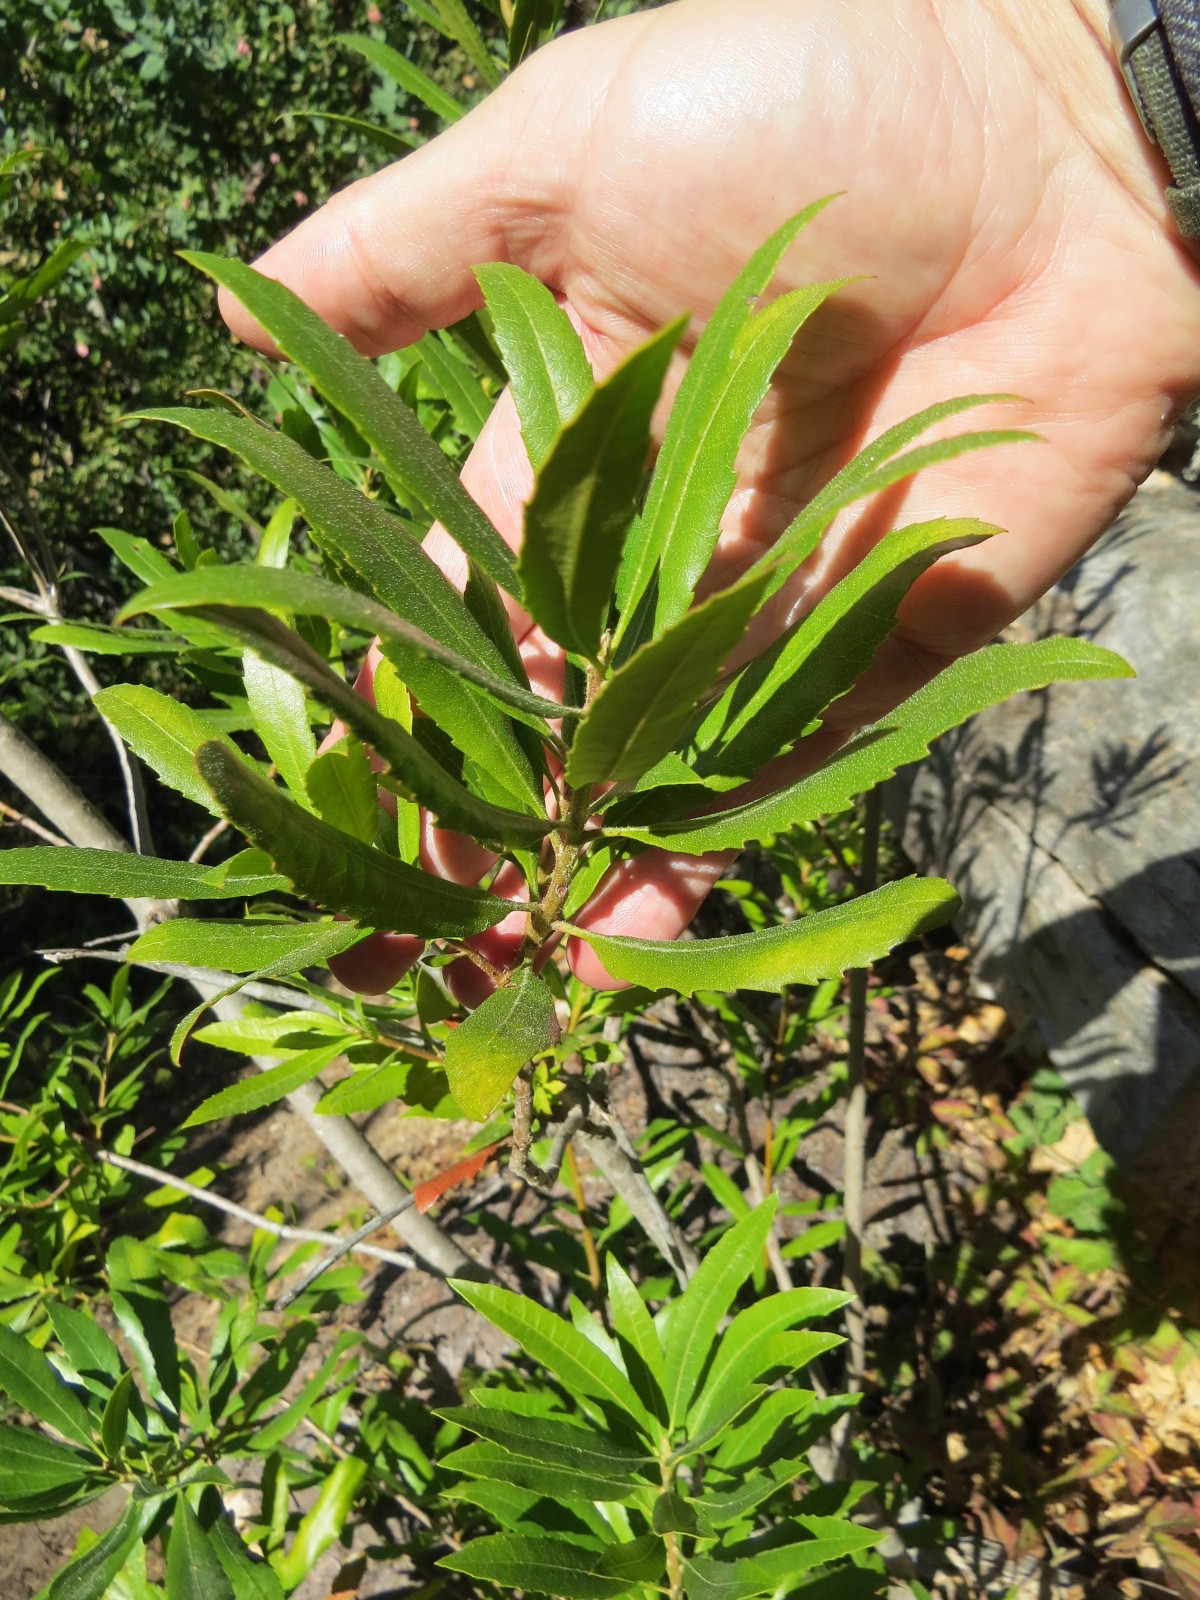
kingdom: Plantae
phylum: Tracheophyta
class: Magnoliopsida
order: Fagales
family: Myricaceae
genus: Morella
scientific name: Morella californica
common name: California wax-myrtle
